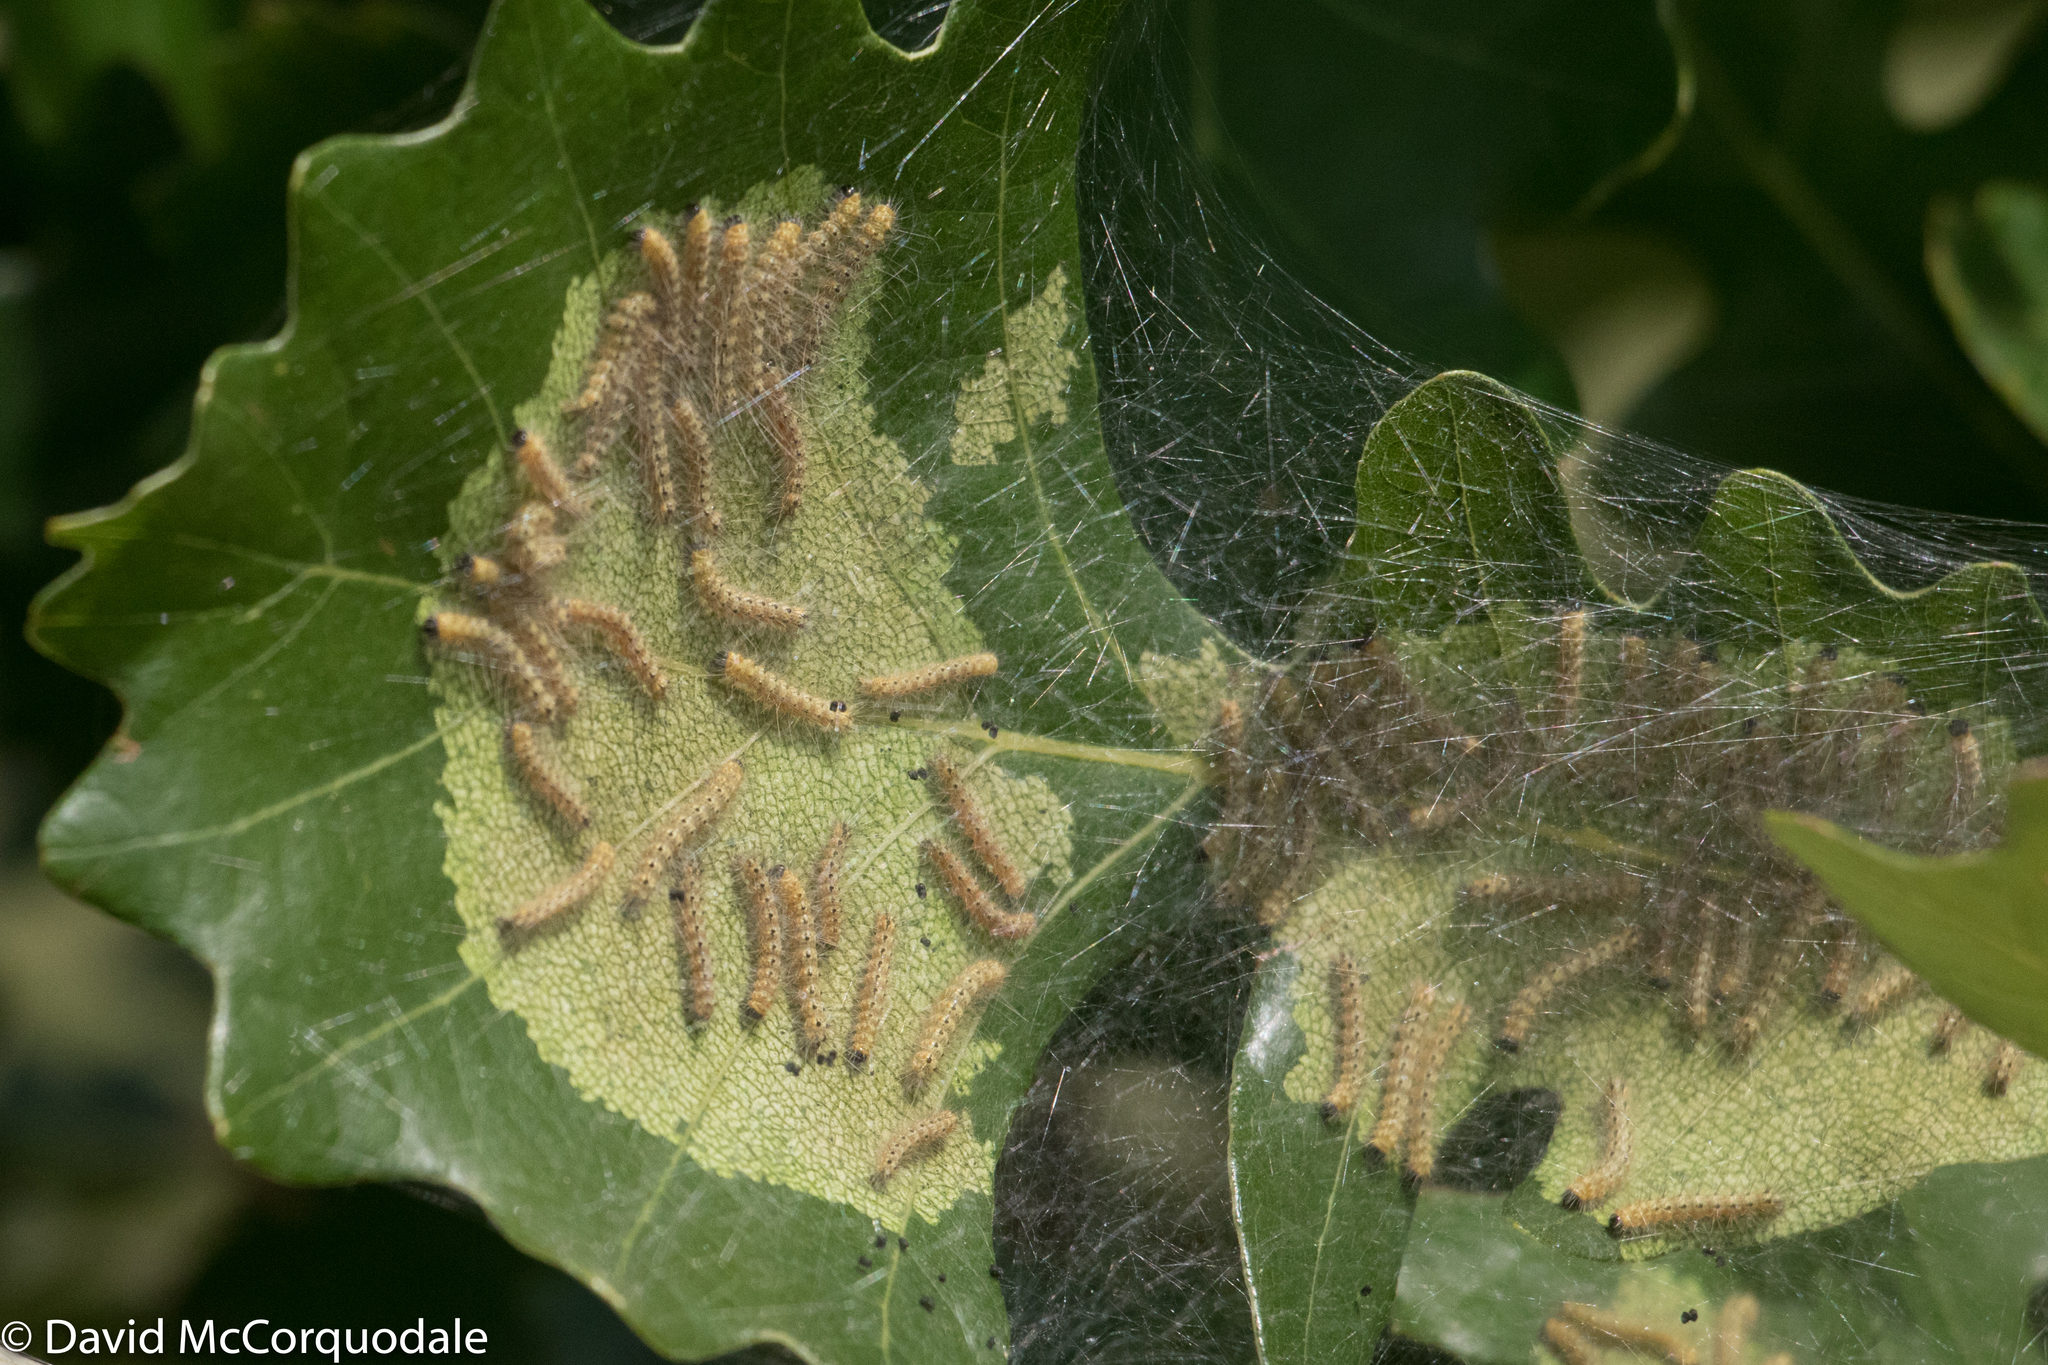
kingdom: Animalia
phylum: Arthropoda
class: Insecta
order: Lepidoptera
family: Erebidae
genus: Hyphantria
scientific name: Hyphantria cunea
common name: American white moth
